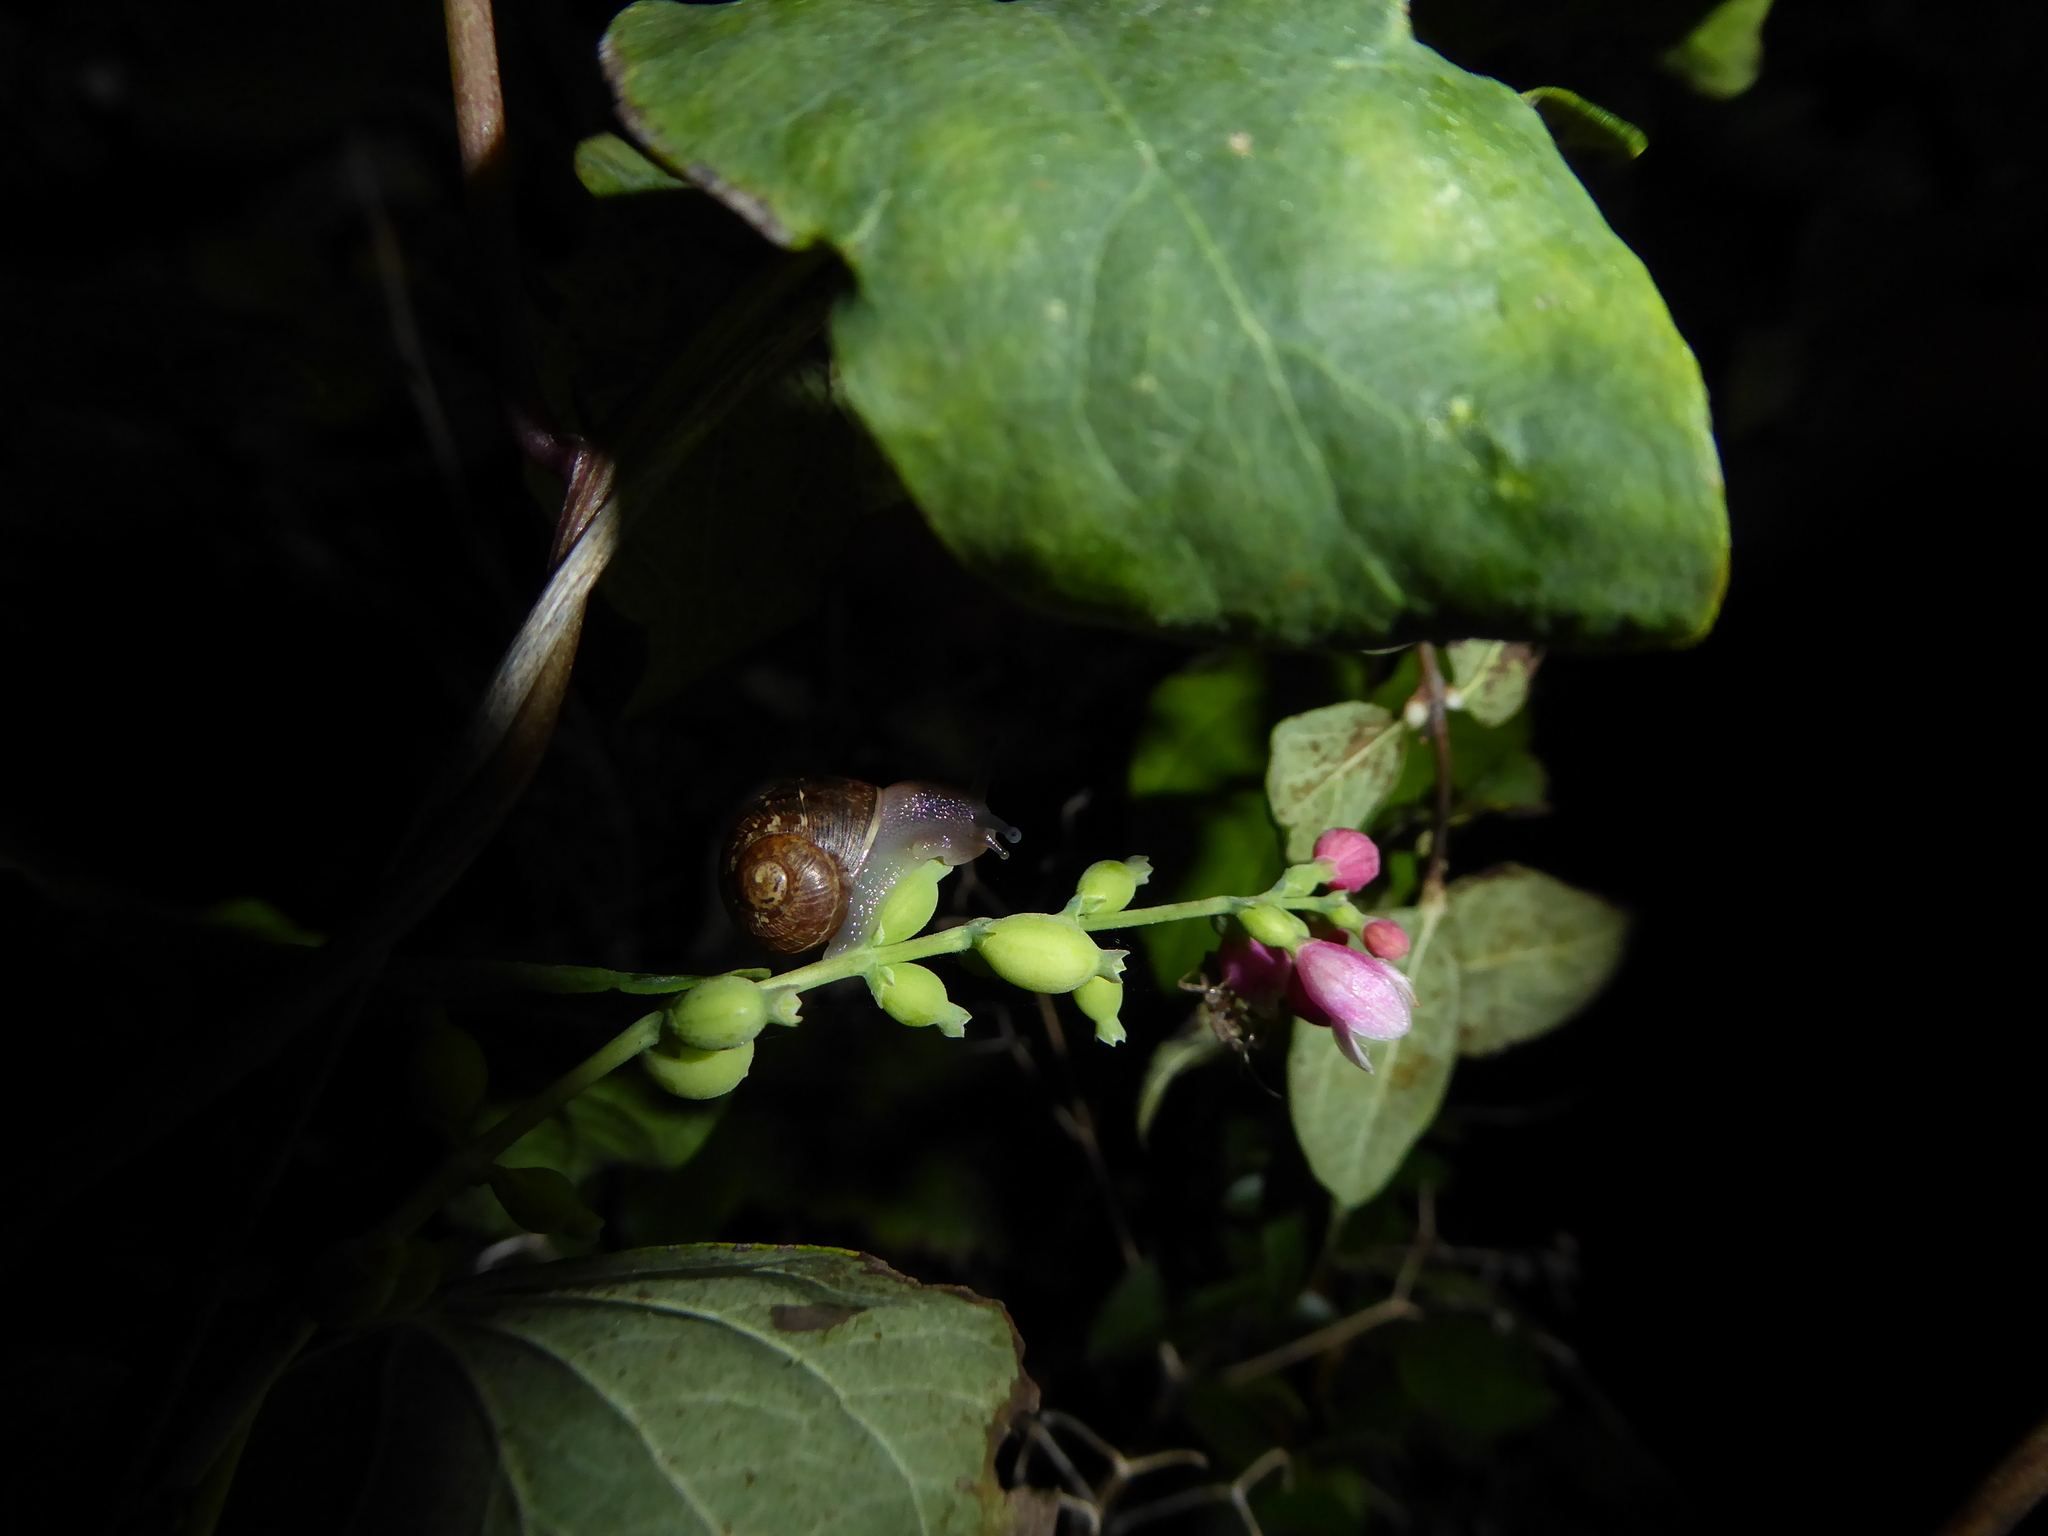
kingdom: Plantae
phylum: Tracheophyta
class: Magnoliopsida
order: Dipsacales
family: Caprifoliaceae
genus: Symphoricarpos
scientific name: Symphoricarpos albus
